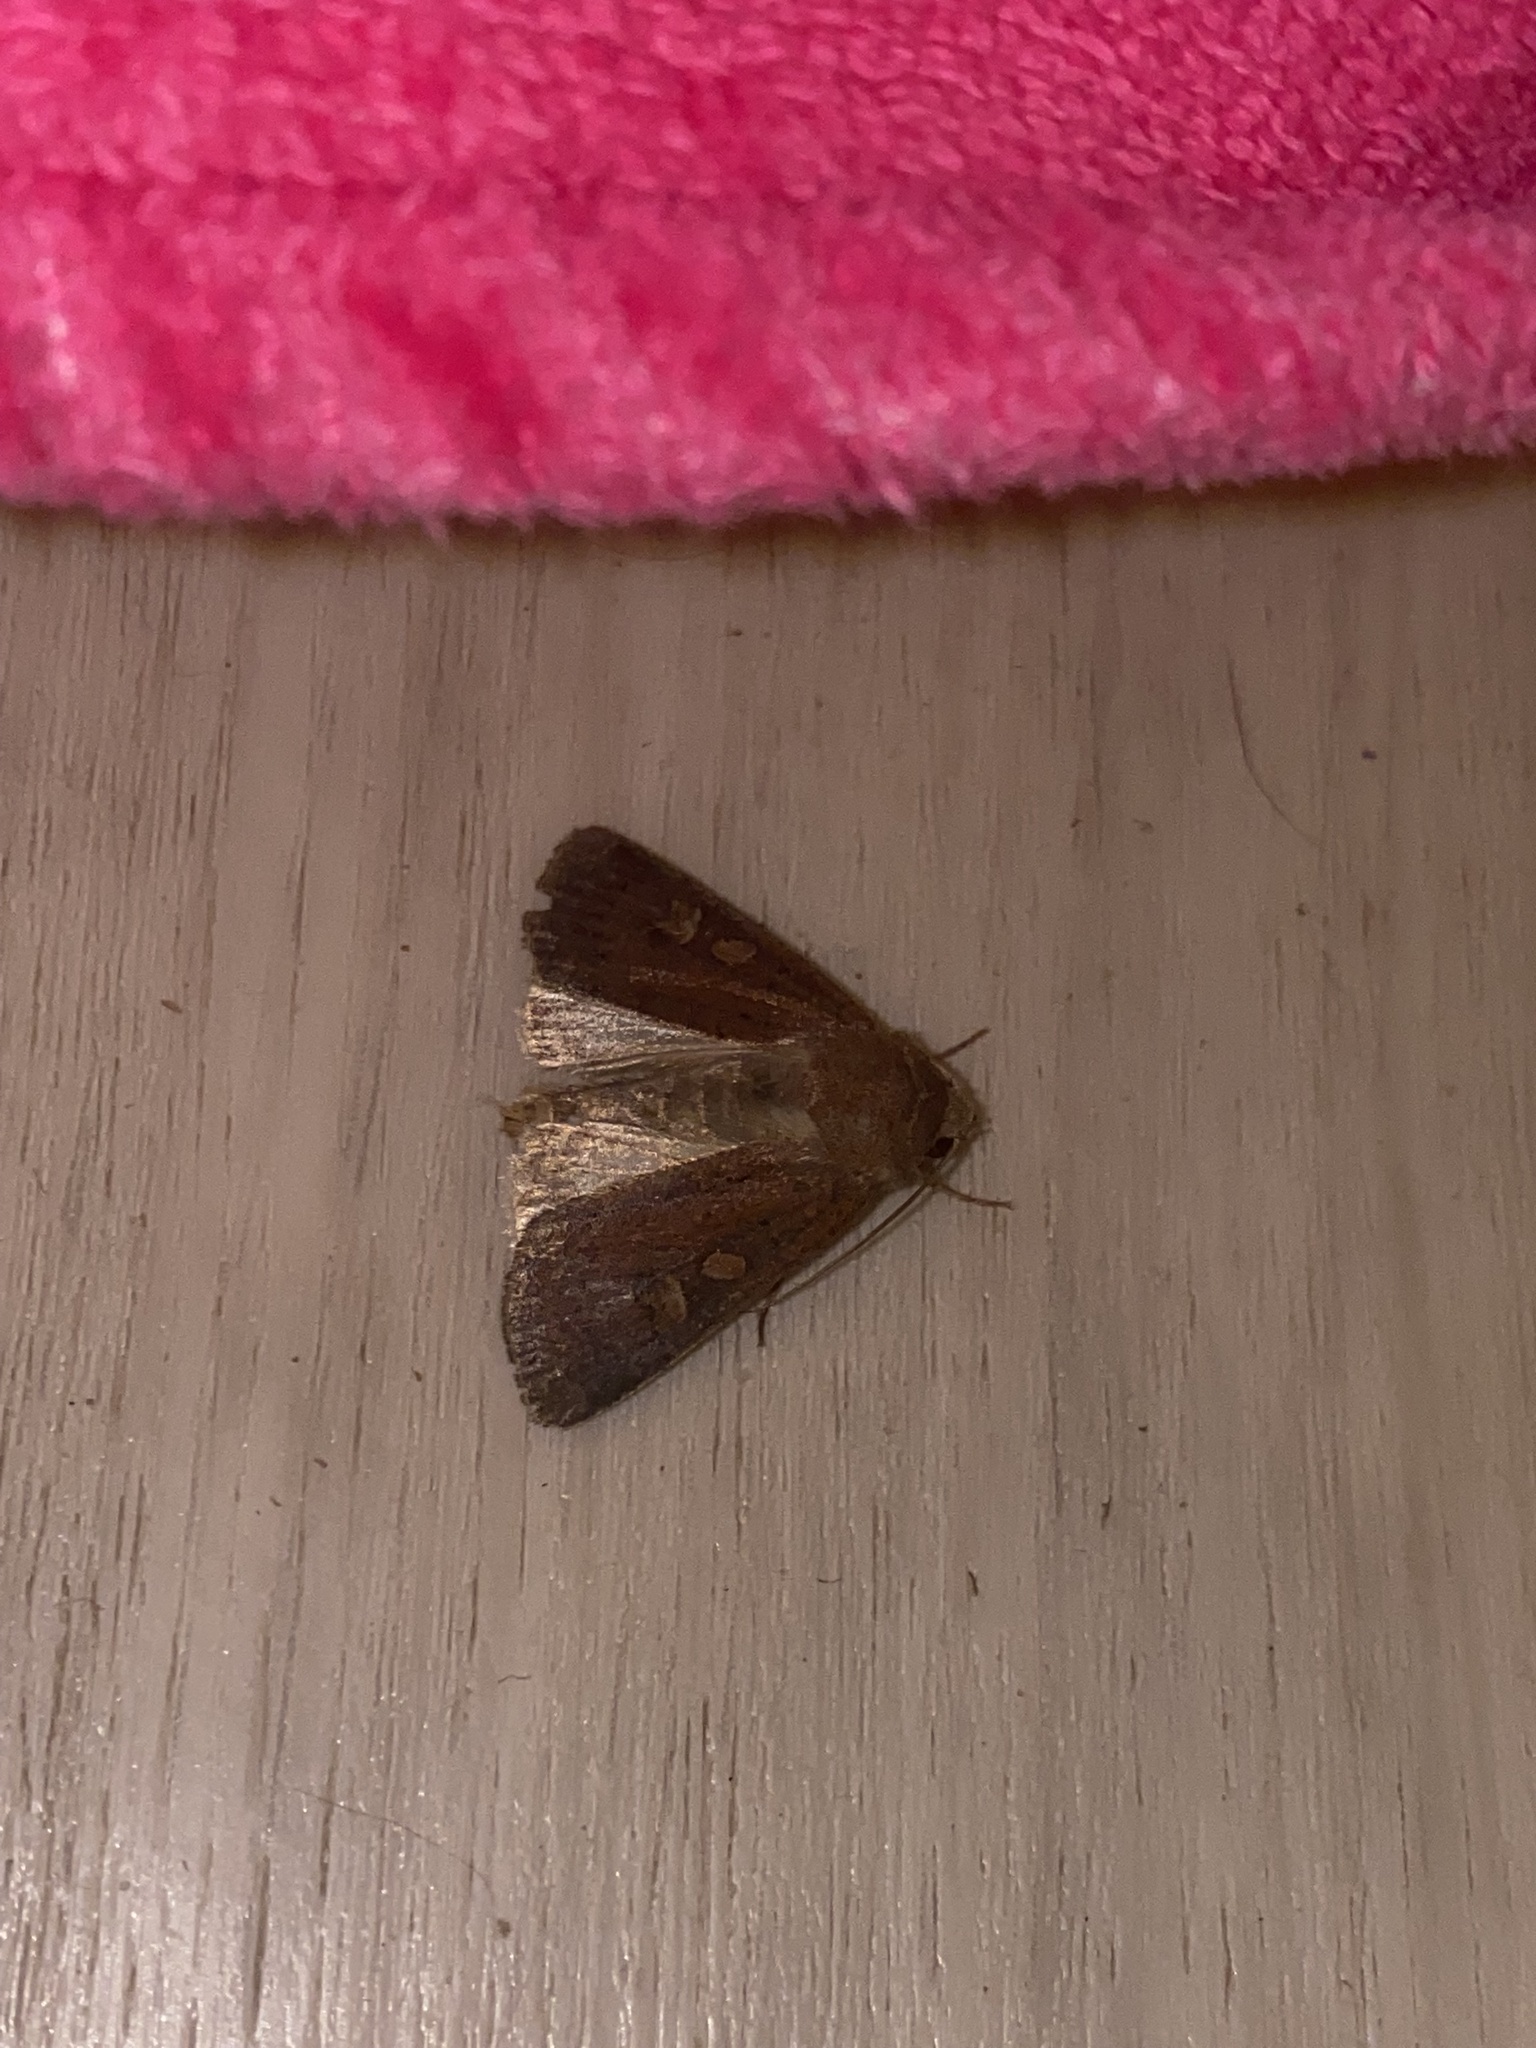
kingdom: Animalia
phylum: Arthropoda
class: Insecta
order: Lepidoptera
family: Noctuidae
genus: Xestia
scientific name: Xestia xanthographa
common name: Square-spot rustic
